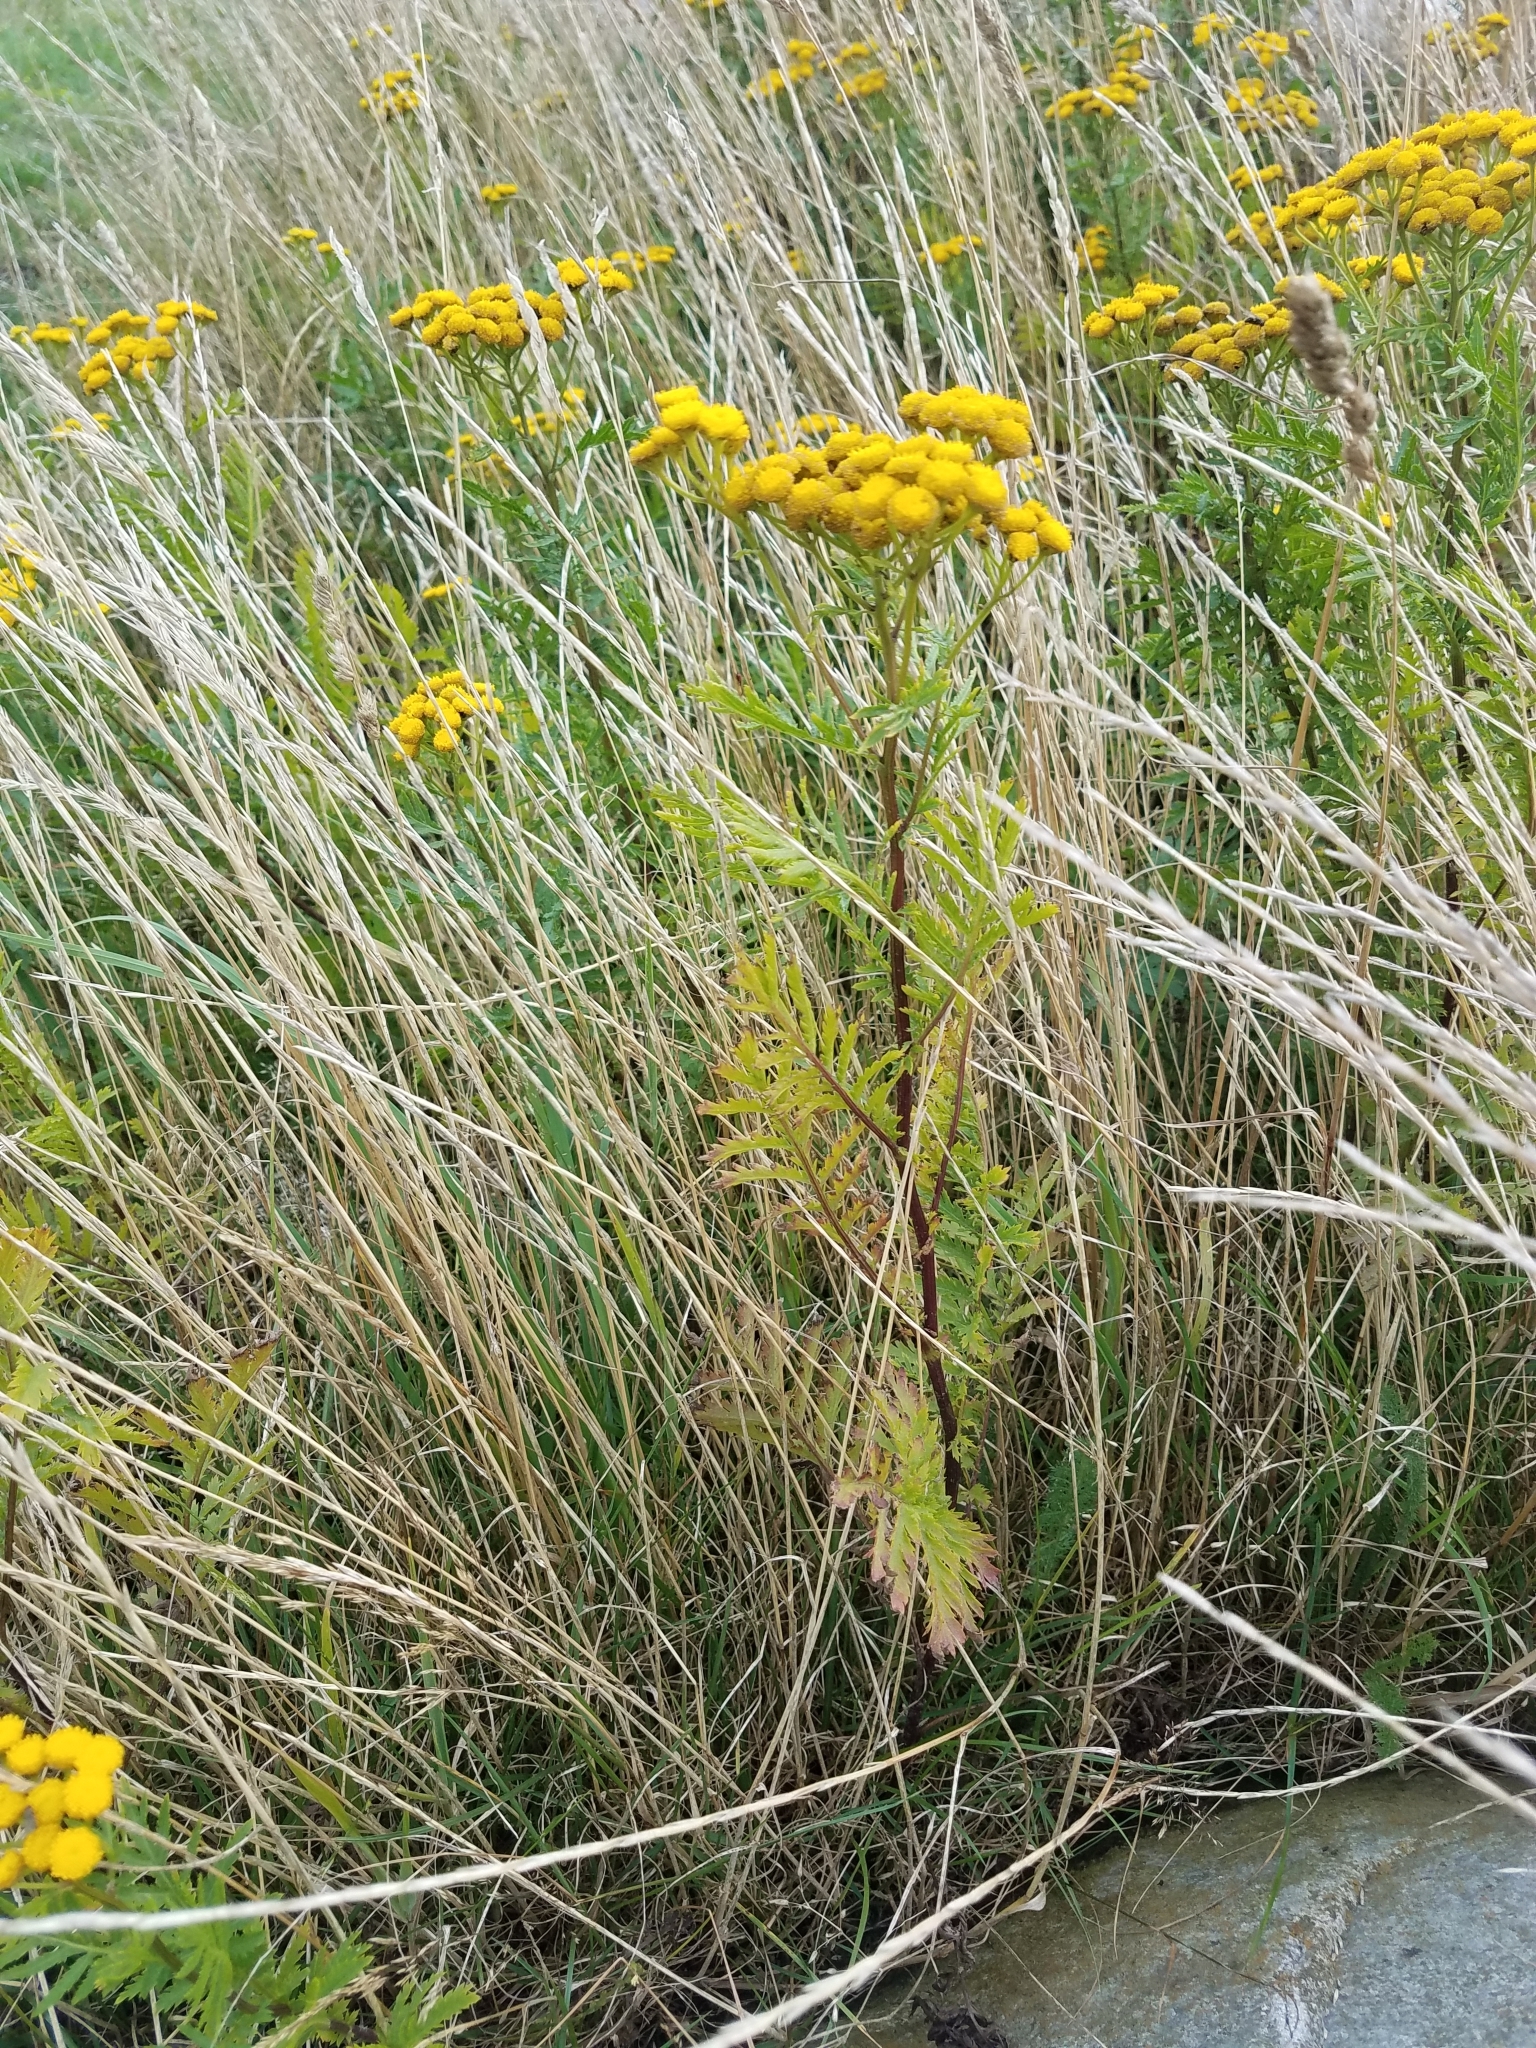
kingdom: Plantae
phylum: Tracheophyta
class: Magnoliopsida
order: Asterales
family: Asteraceae
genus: Tanacetum
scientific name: Tanacetum vulgare
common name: Common tansy
